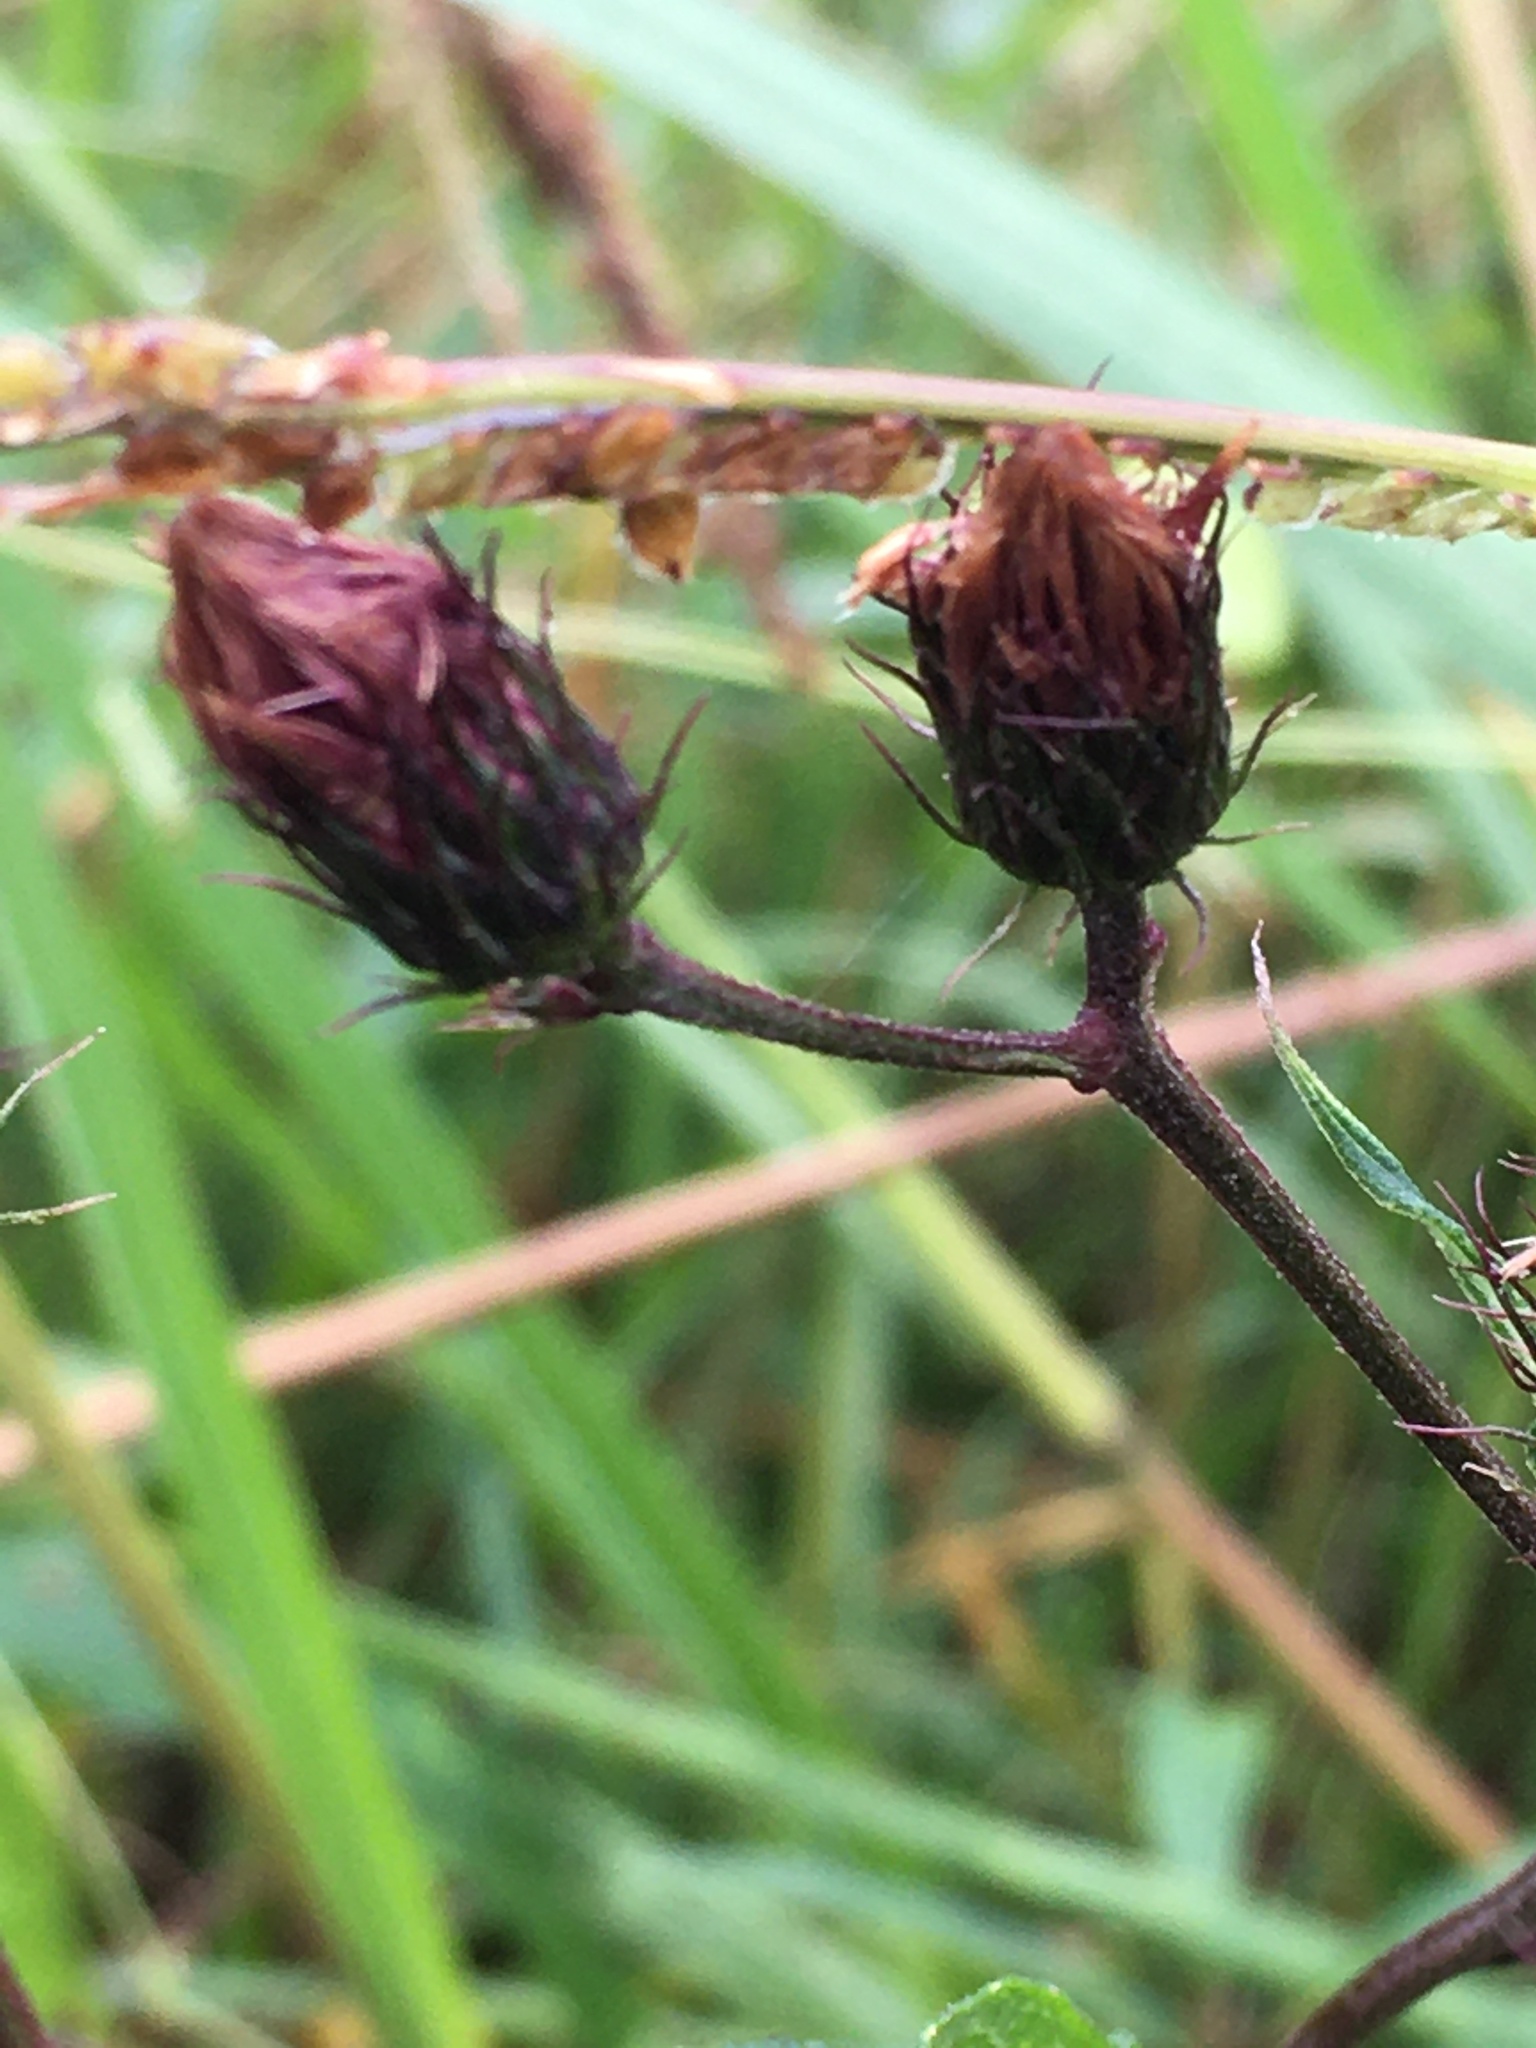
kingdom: Plantae
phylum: Tracheophyta
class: Magnoliopsida
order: Asterales
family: Asteraceae
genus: Vernonia
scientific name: Vernonia noveboracensis
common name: New york ironweed
